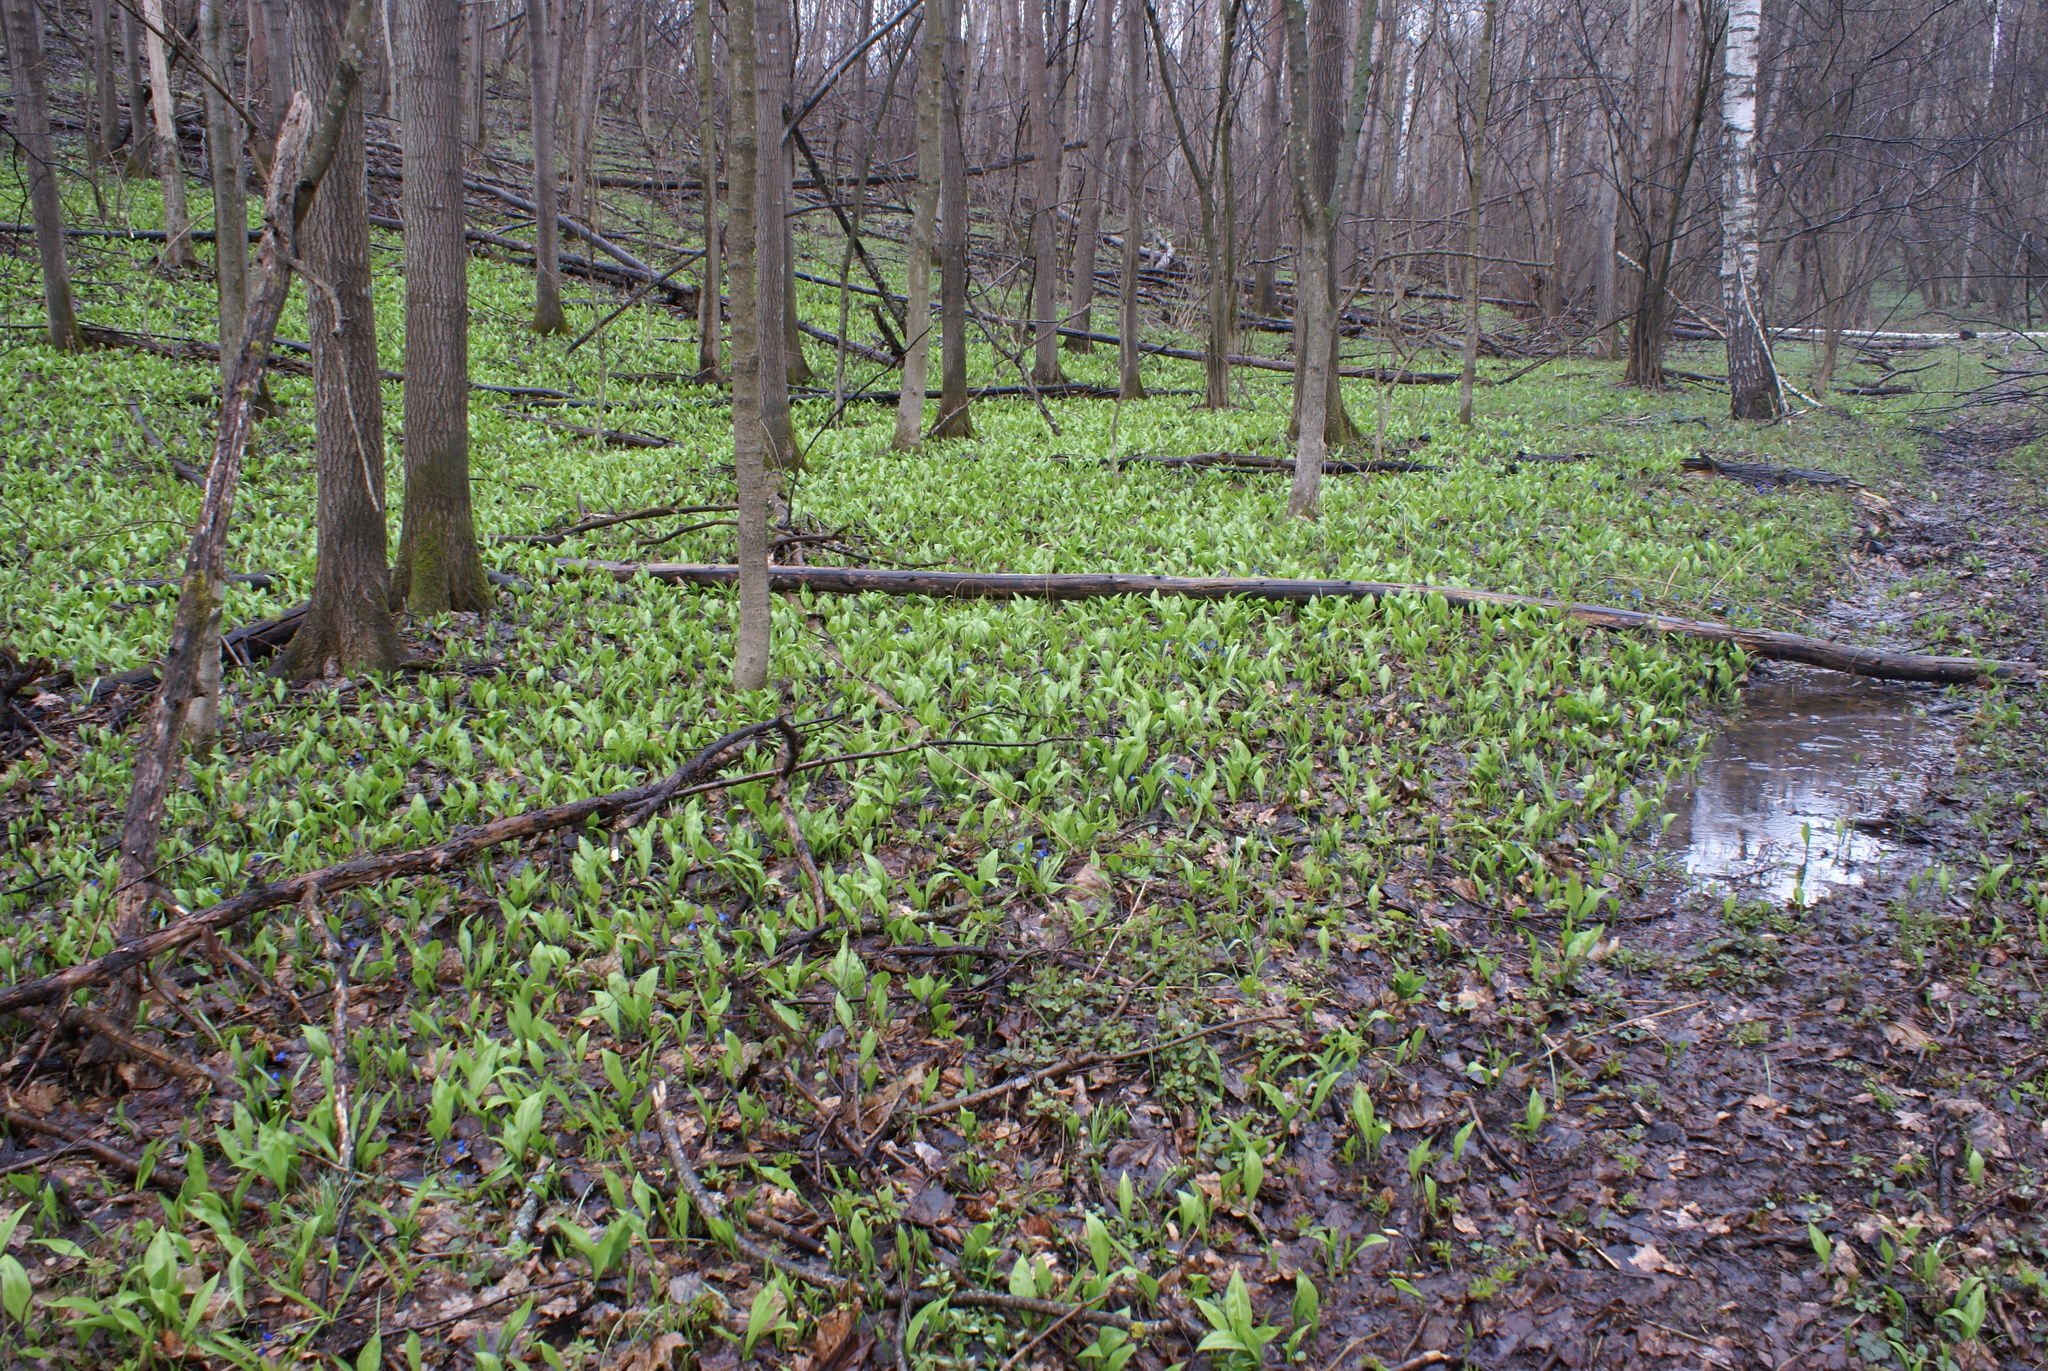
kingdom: Plantae
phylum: Tracheophyta
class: Liliopsida
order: Asparagales
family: Amaryllidaceae
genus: Allium
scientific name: Allium ursinum
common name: Ramsons
